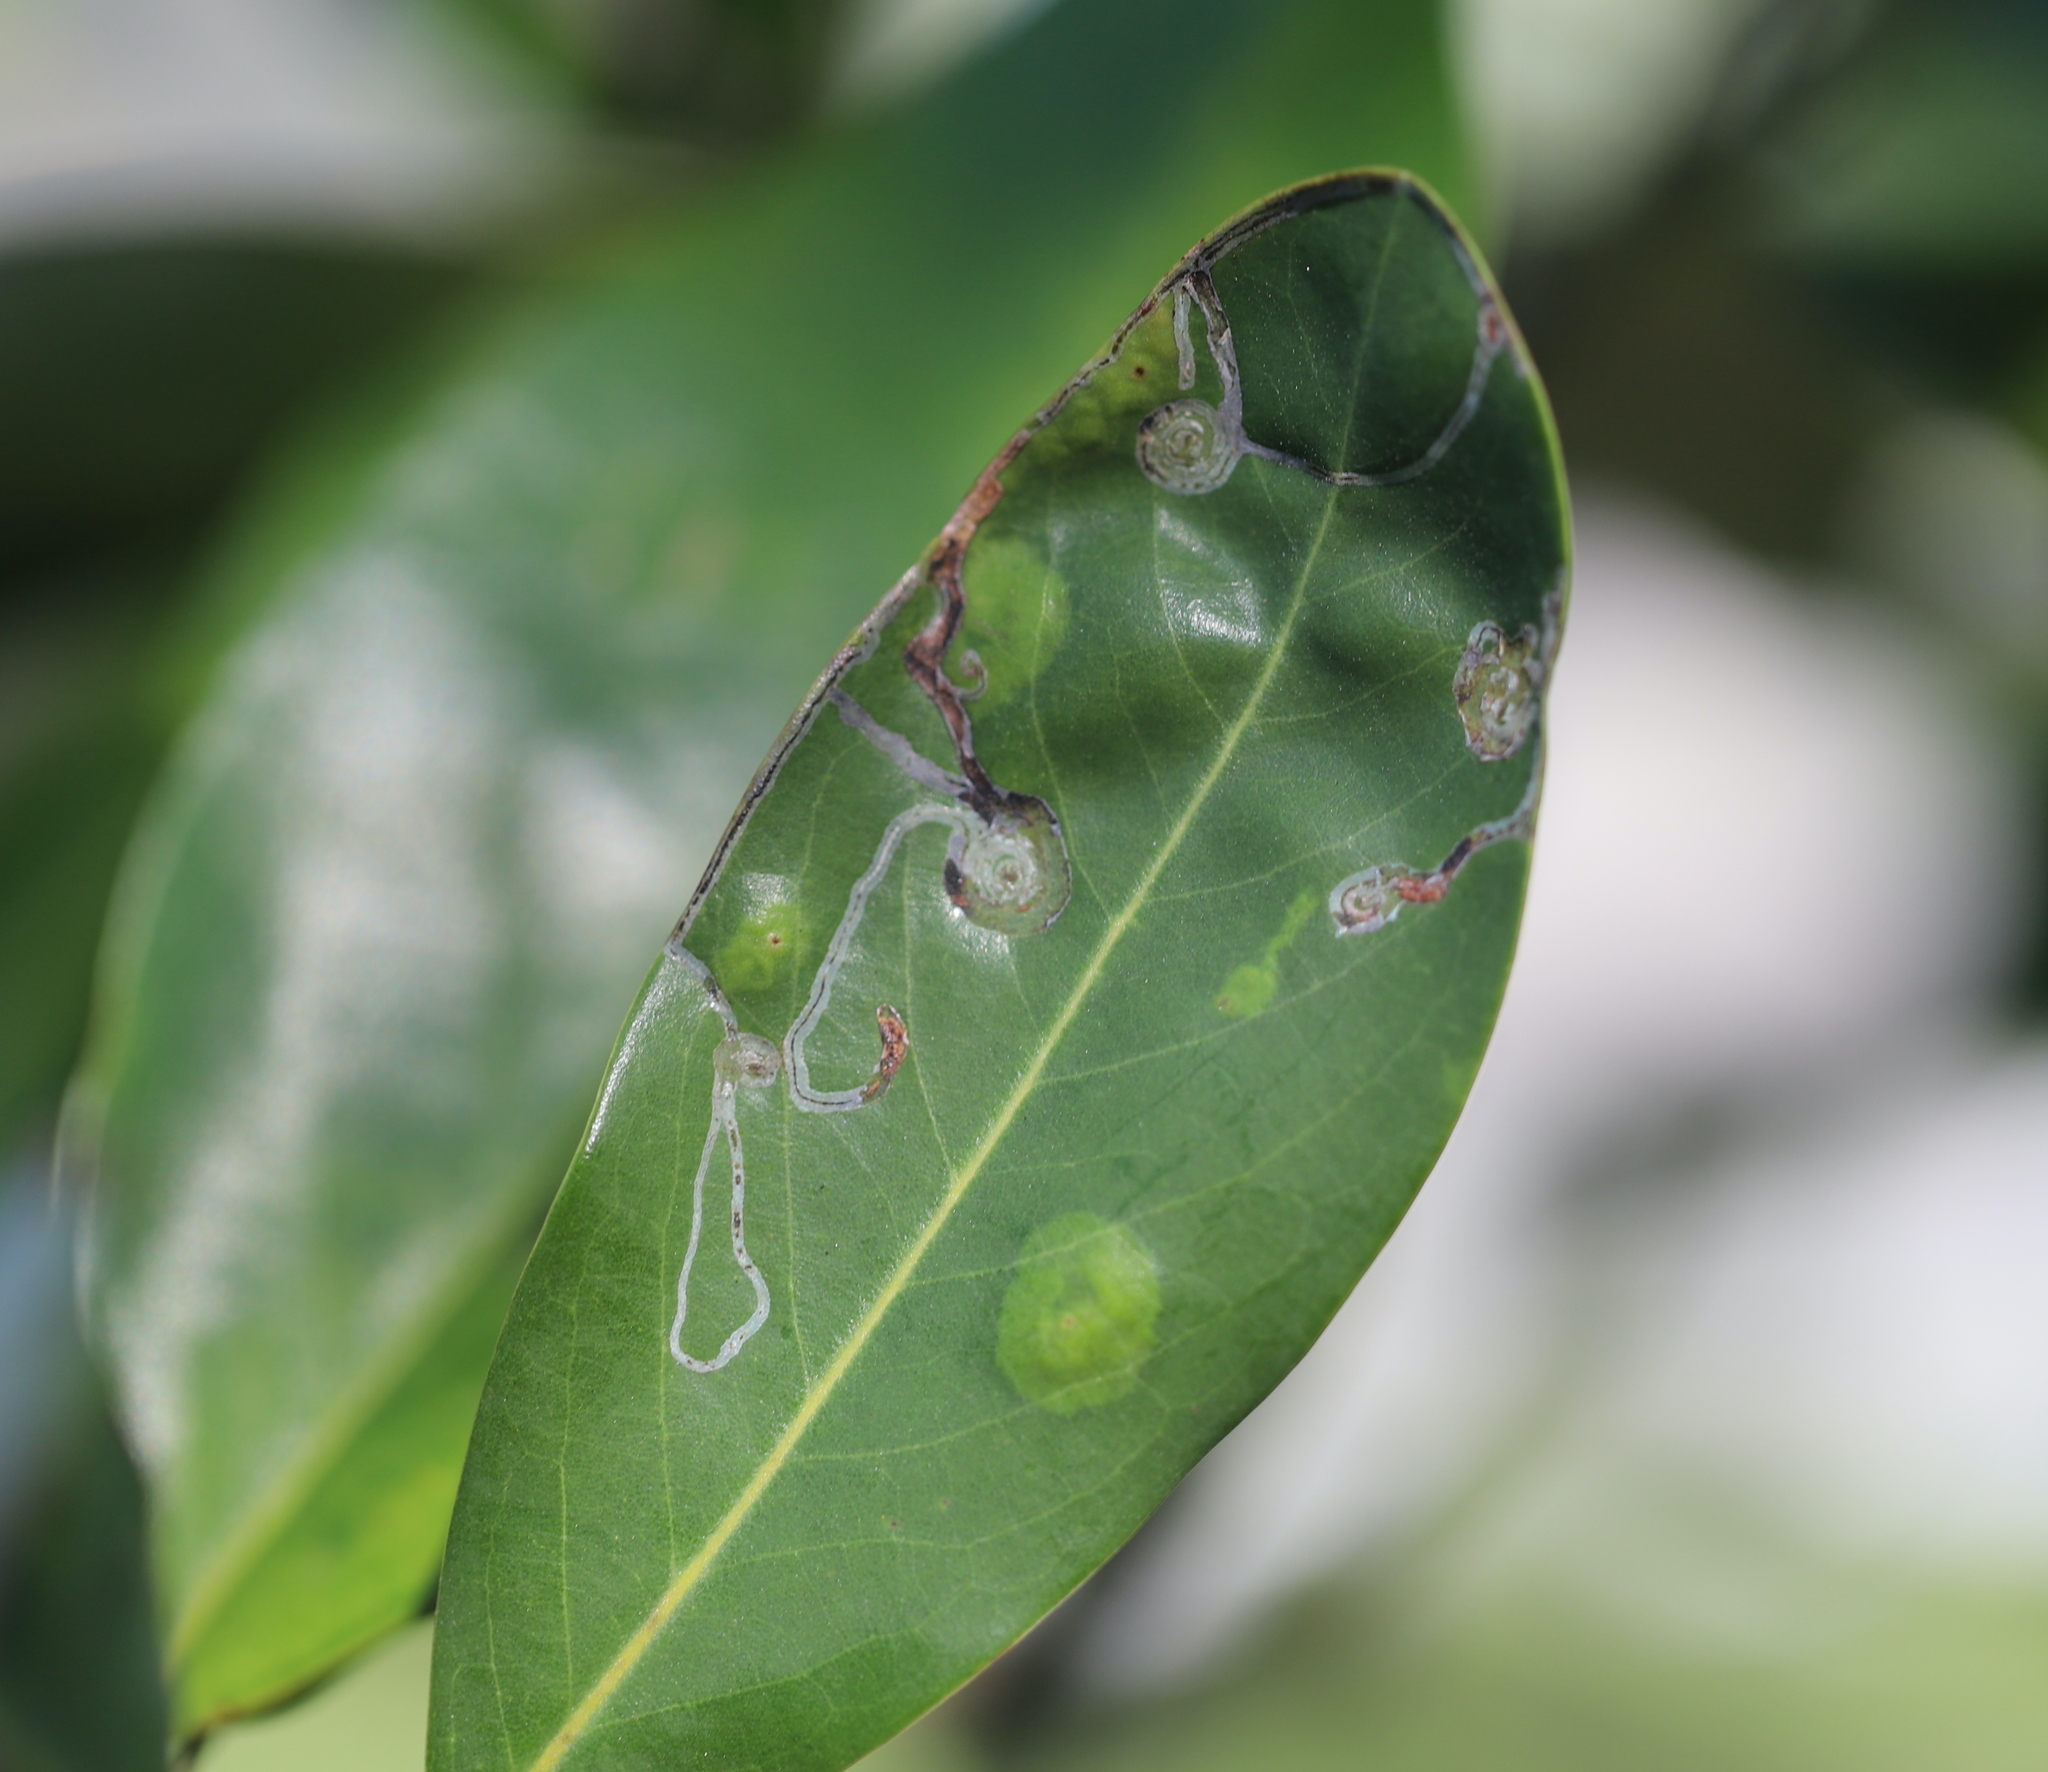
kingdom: Animalia
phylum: Arthropoda
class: Insecta
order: Lepidoptera
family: Gracillariidae
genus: Phyllocnistis
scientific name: Phyllocnistis liriodendronella
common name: Tulip tree leaf miner
